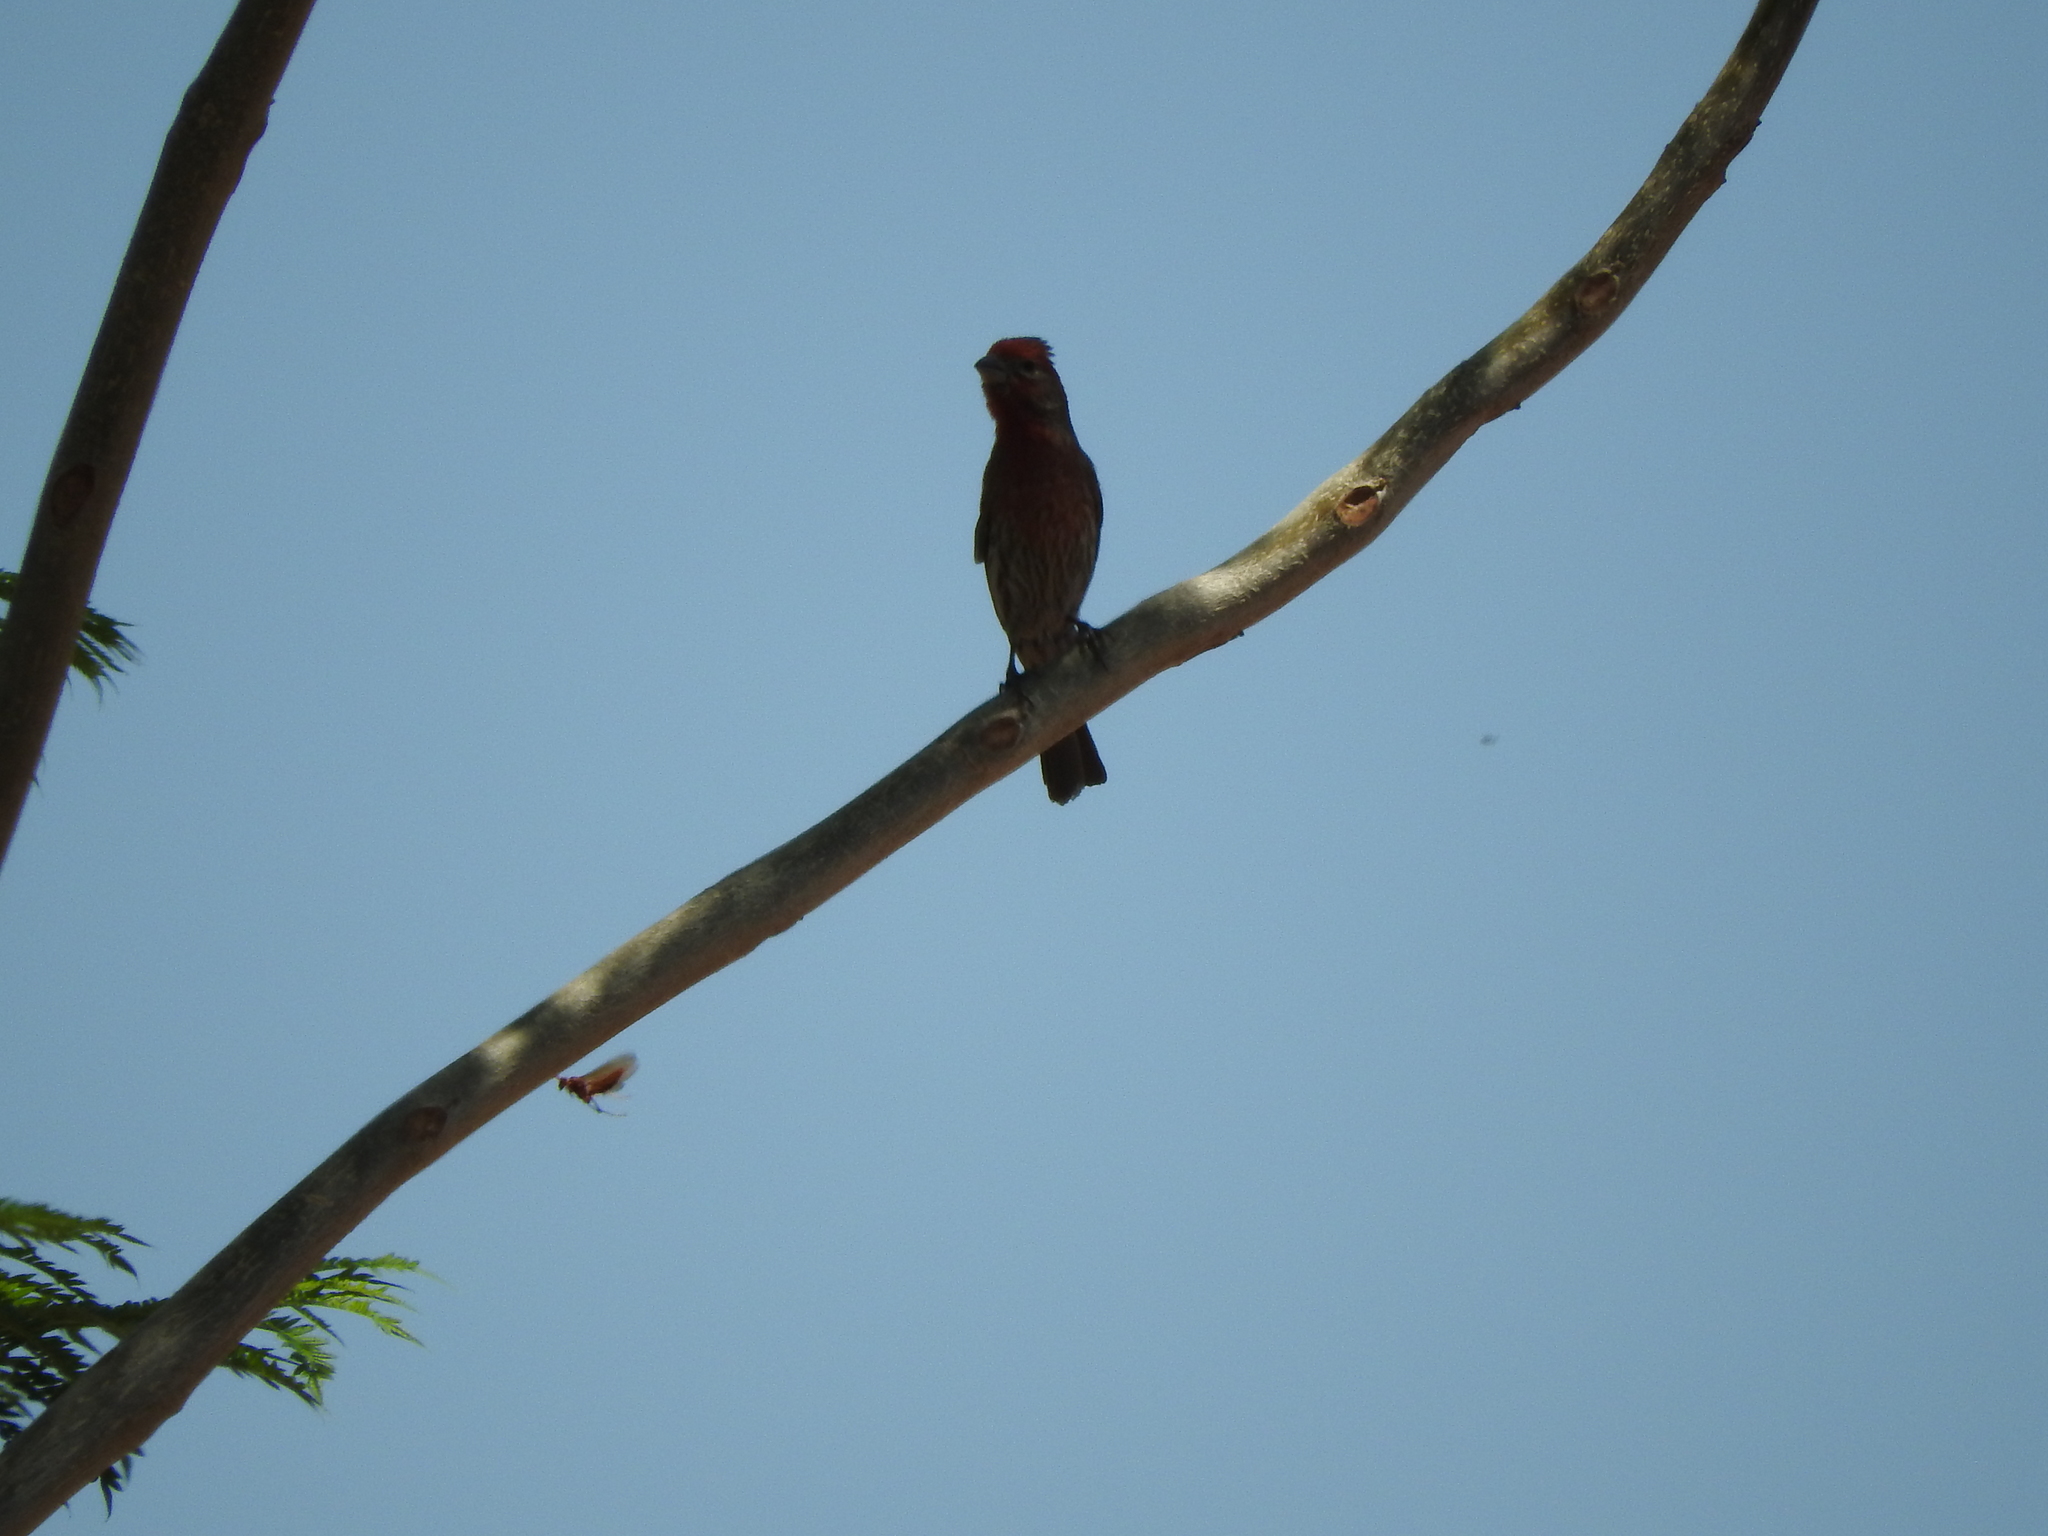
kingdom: Animalia
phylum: Chordata
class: Aves
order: Passeriformes
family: Fringillidae
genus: Haemorhous
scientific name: Haemorhous mexicanus
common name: House finch
